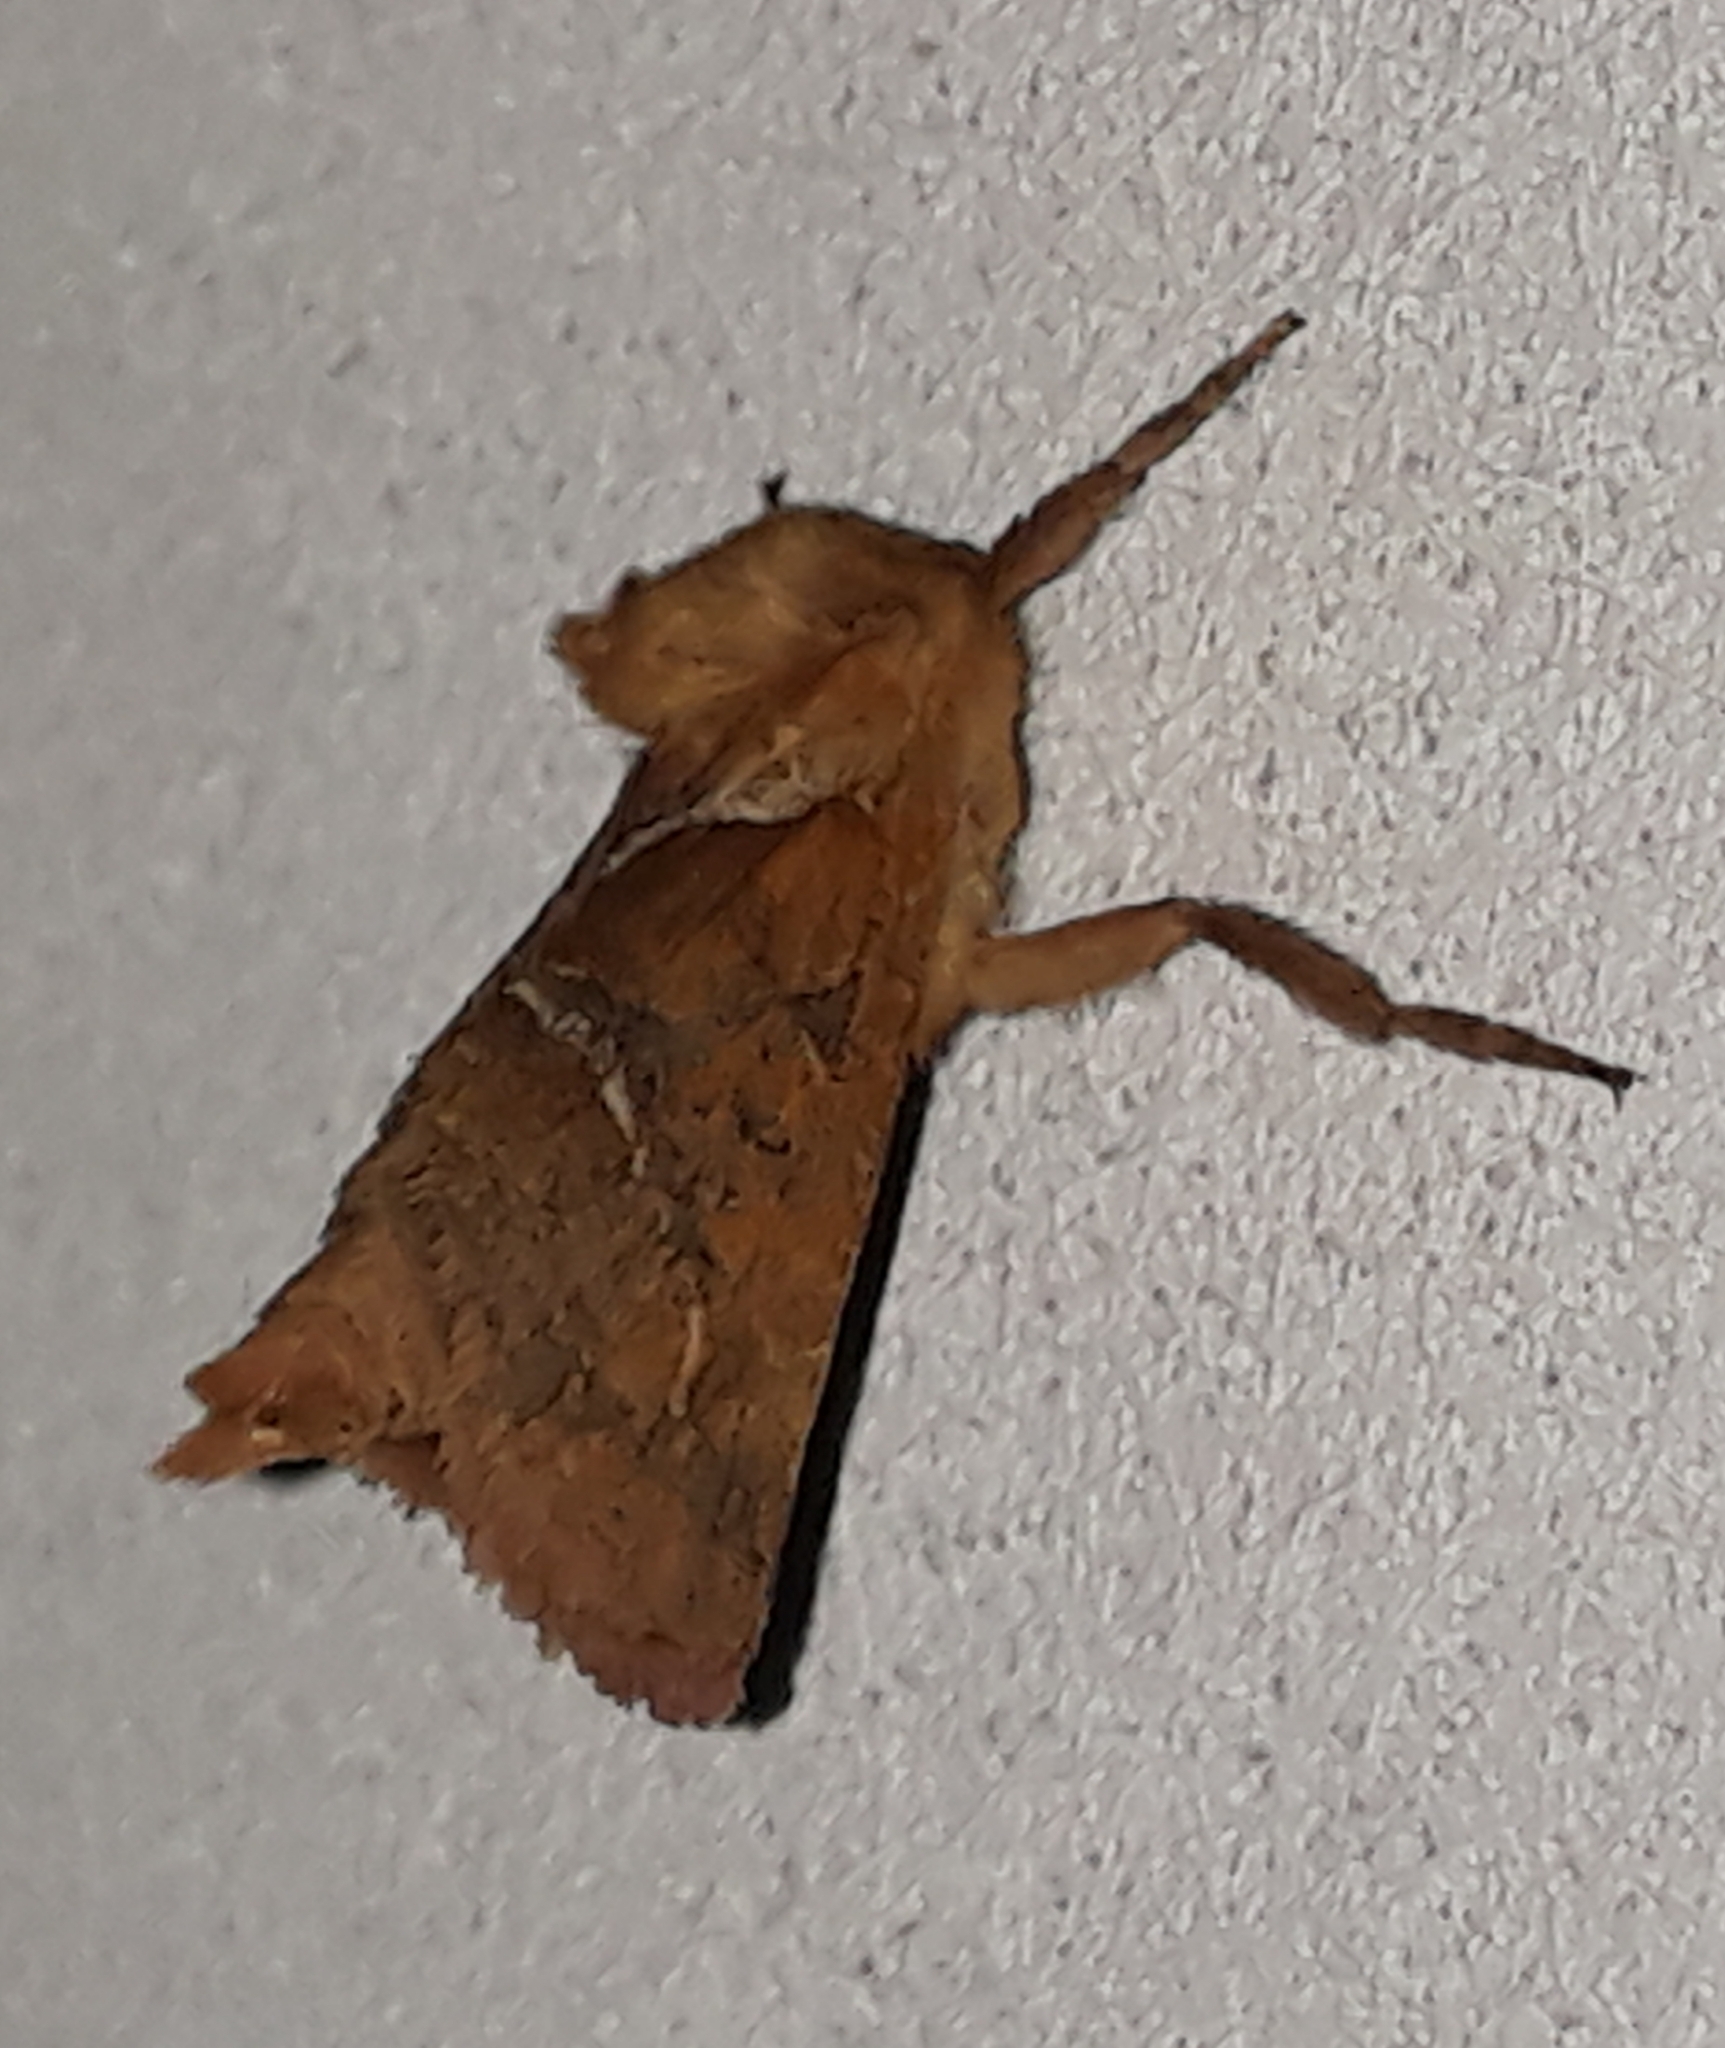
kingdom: Animalia
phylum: Arthropoda
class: Insecta
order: Lepidoptera
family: Hepialidae
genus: Triodia
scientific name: Triodia sylvina
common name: Orange swift
